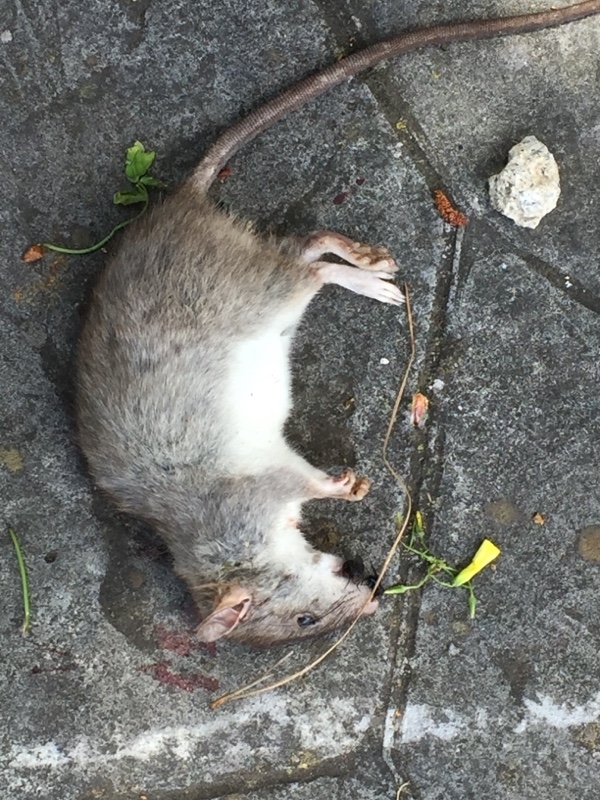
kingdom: Animalia
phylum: Chordata
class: Mammalia
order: Rodentia
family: Muridae
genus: Rattus
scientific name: Rattus norvegicus
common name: Brown rat
